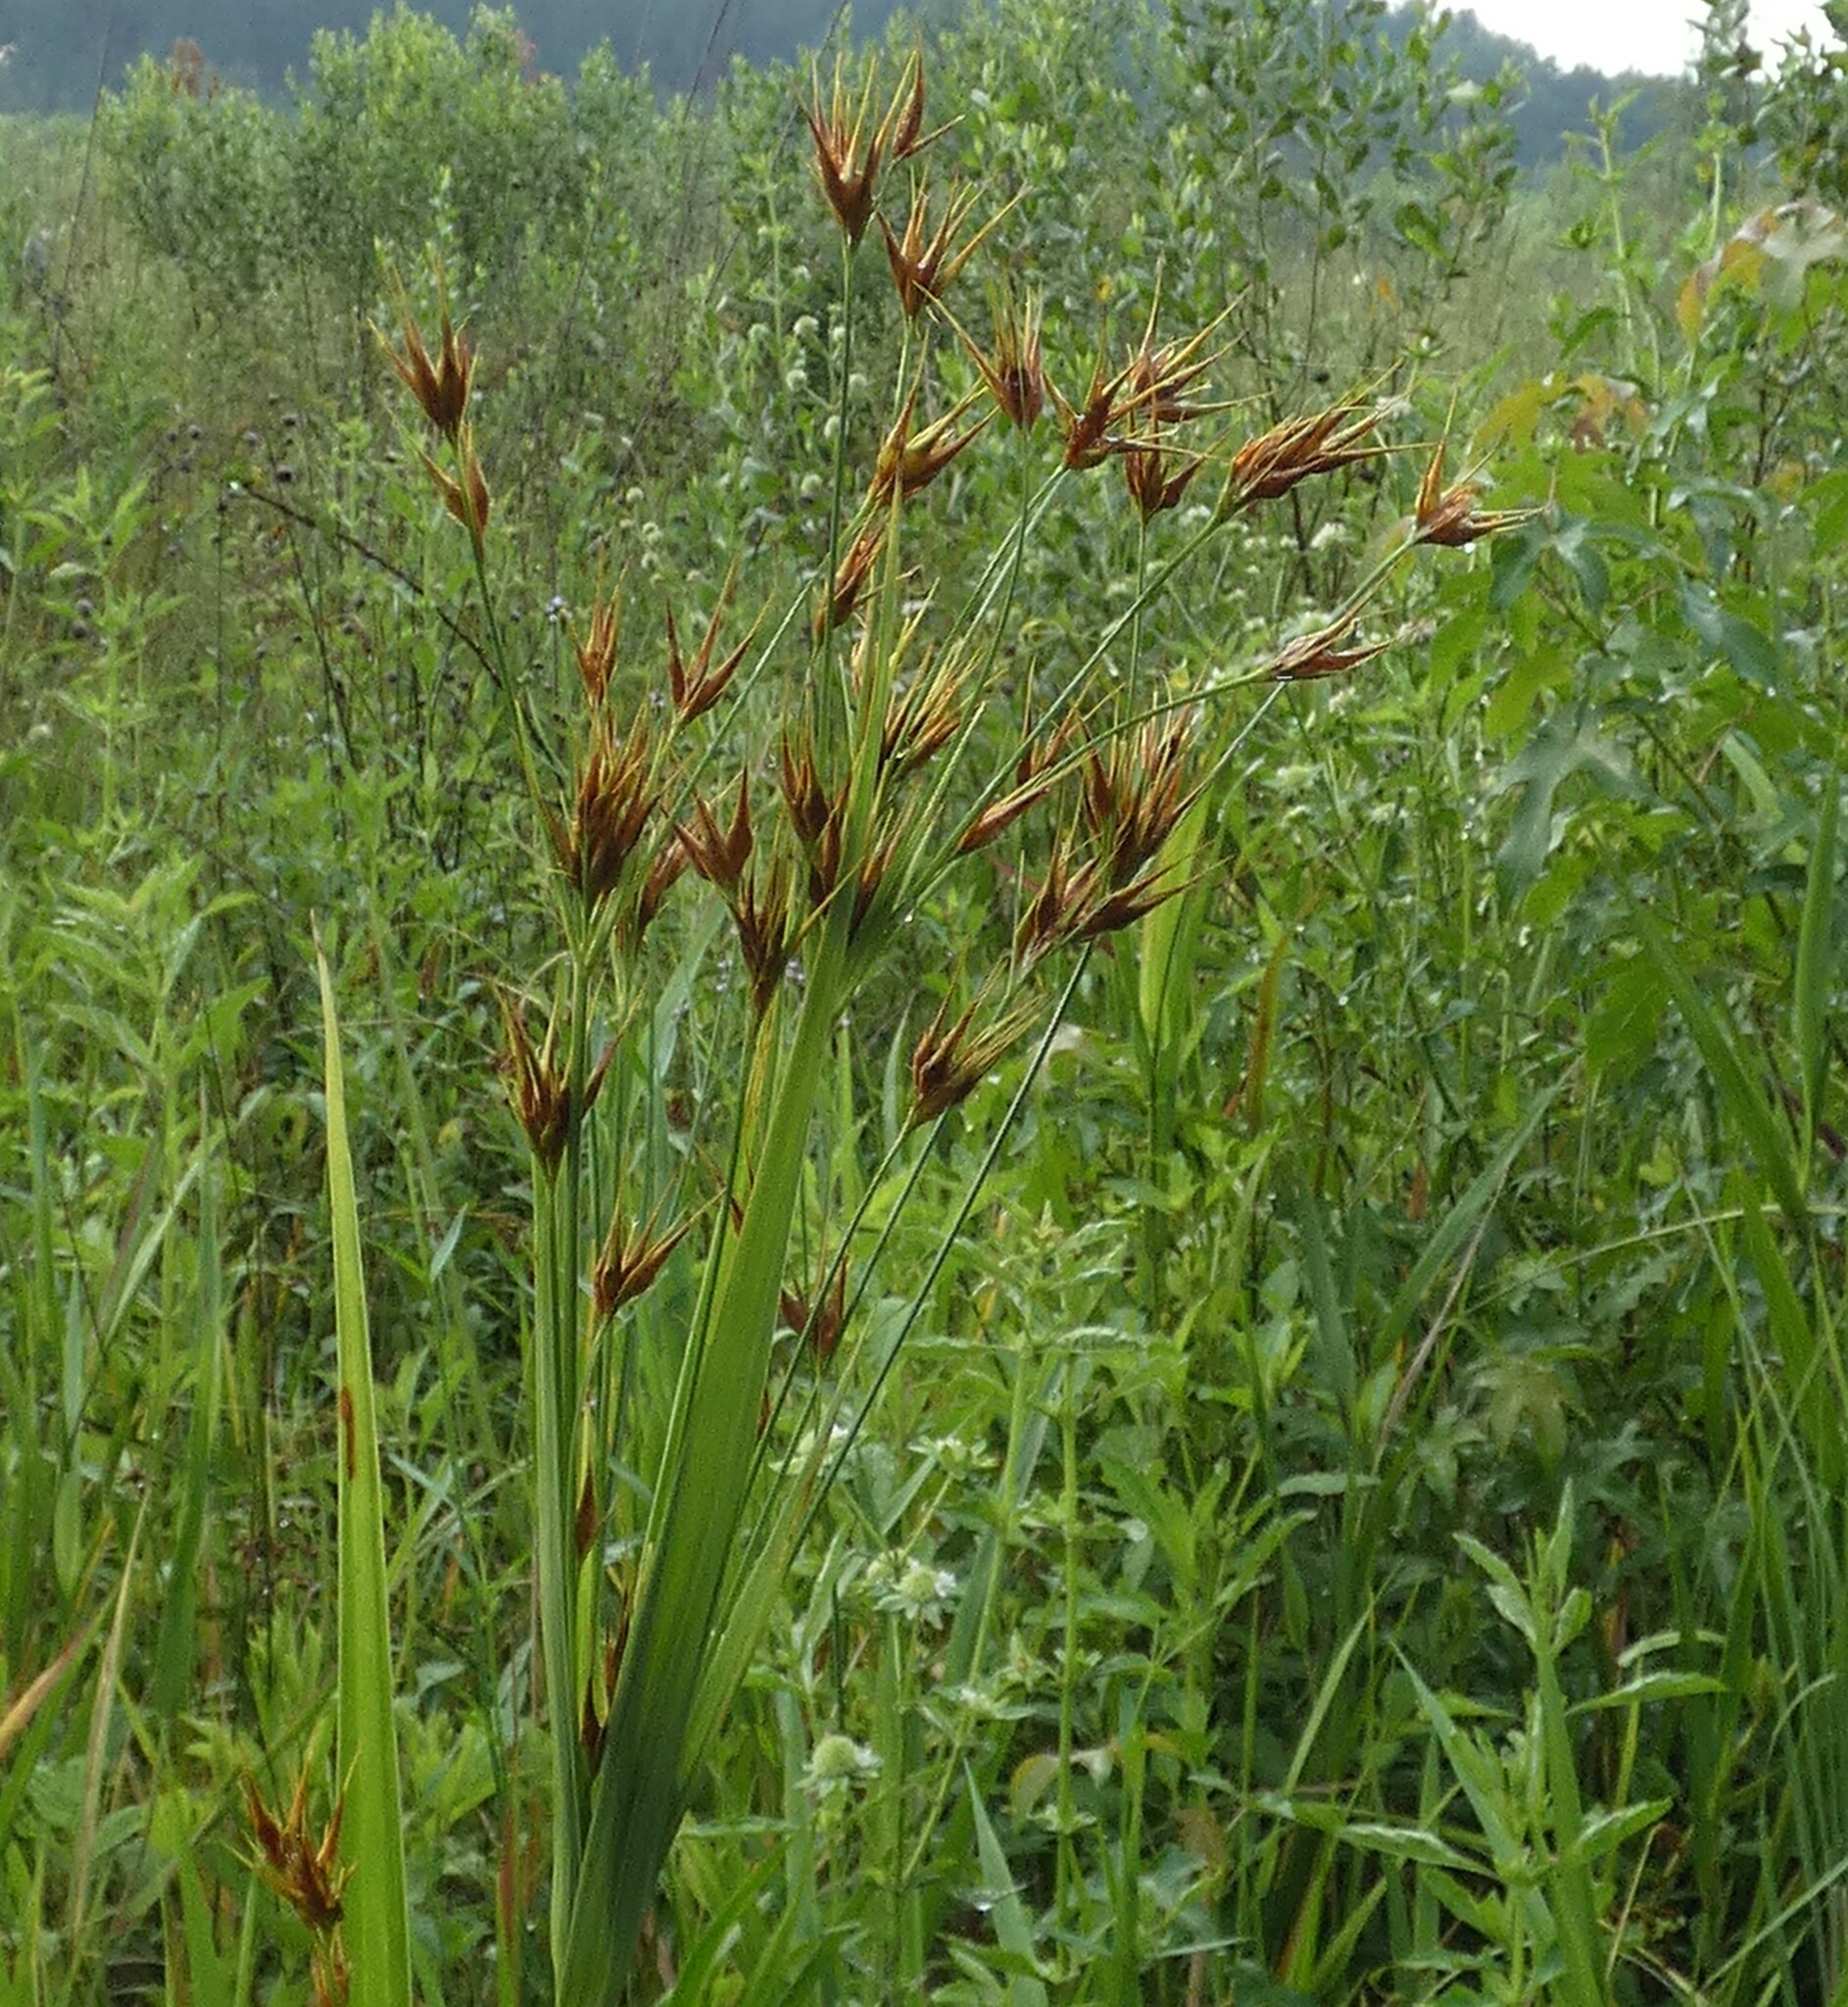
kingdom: Plantae
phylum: Tracheophyta
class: Liliopsida
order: Poales
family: Cyperaceae
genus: Rhynchospora
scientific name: Rhynchospora macrostachya
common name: Tall beakrush
